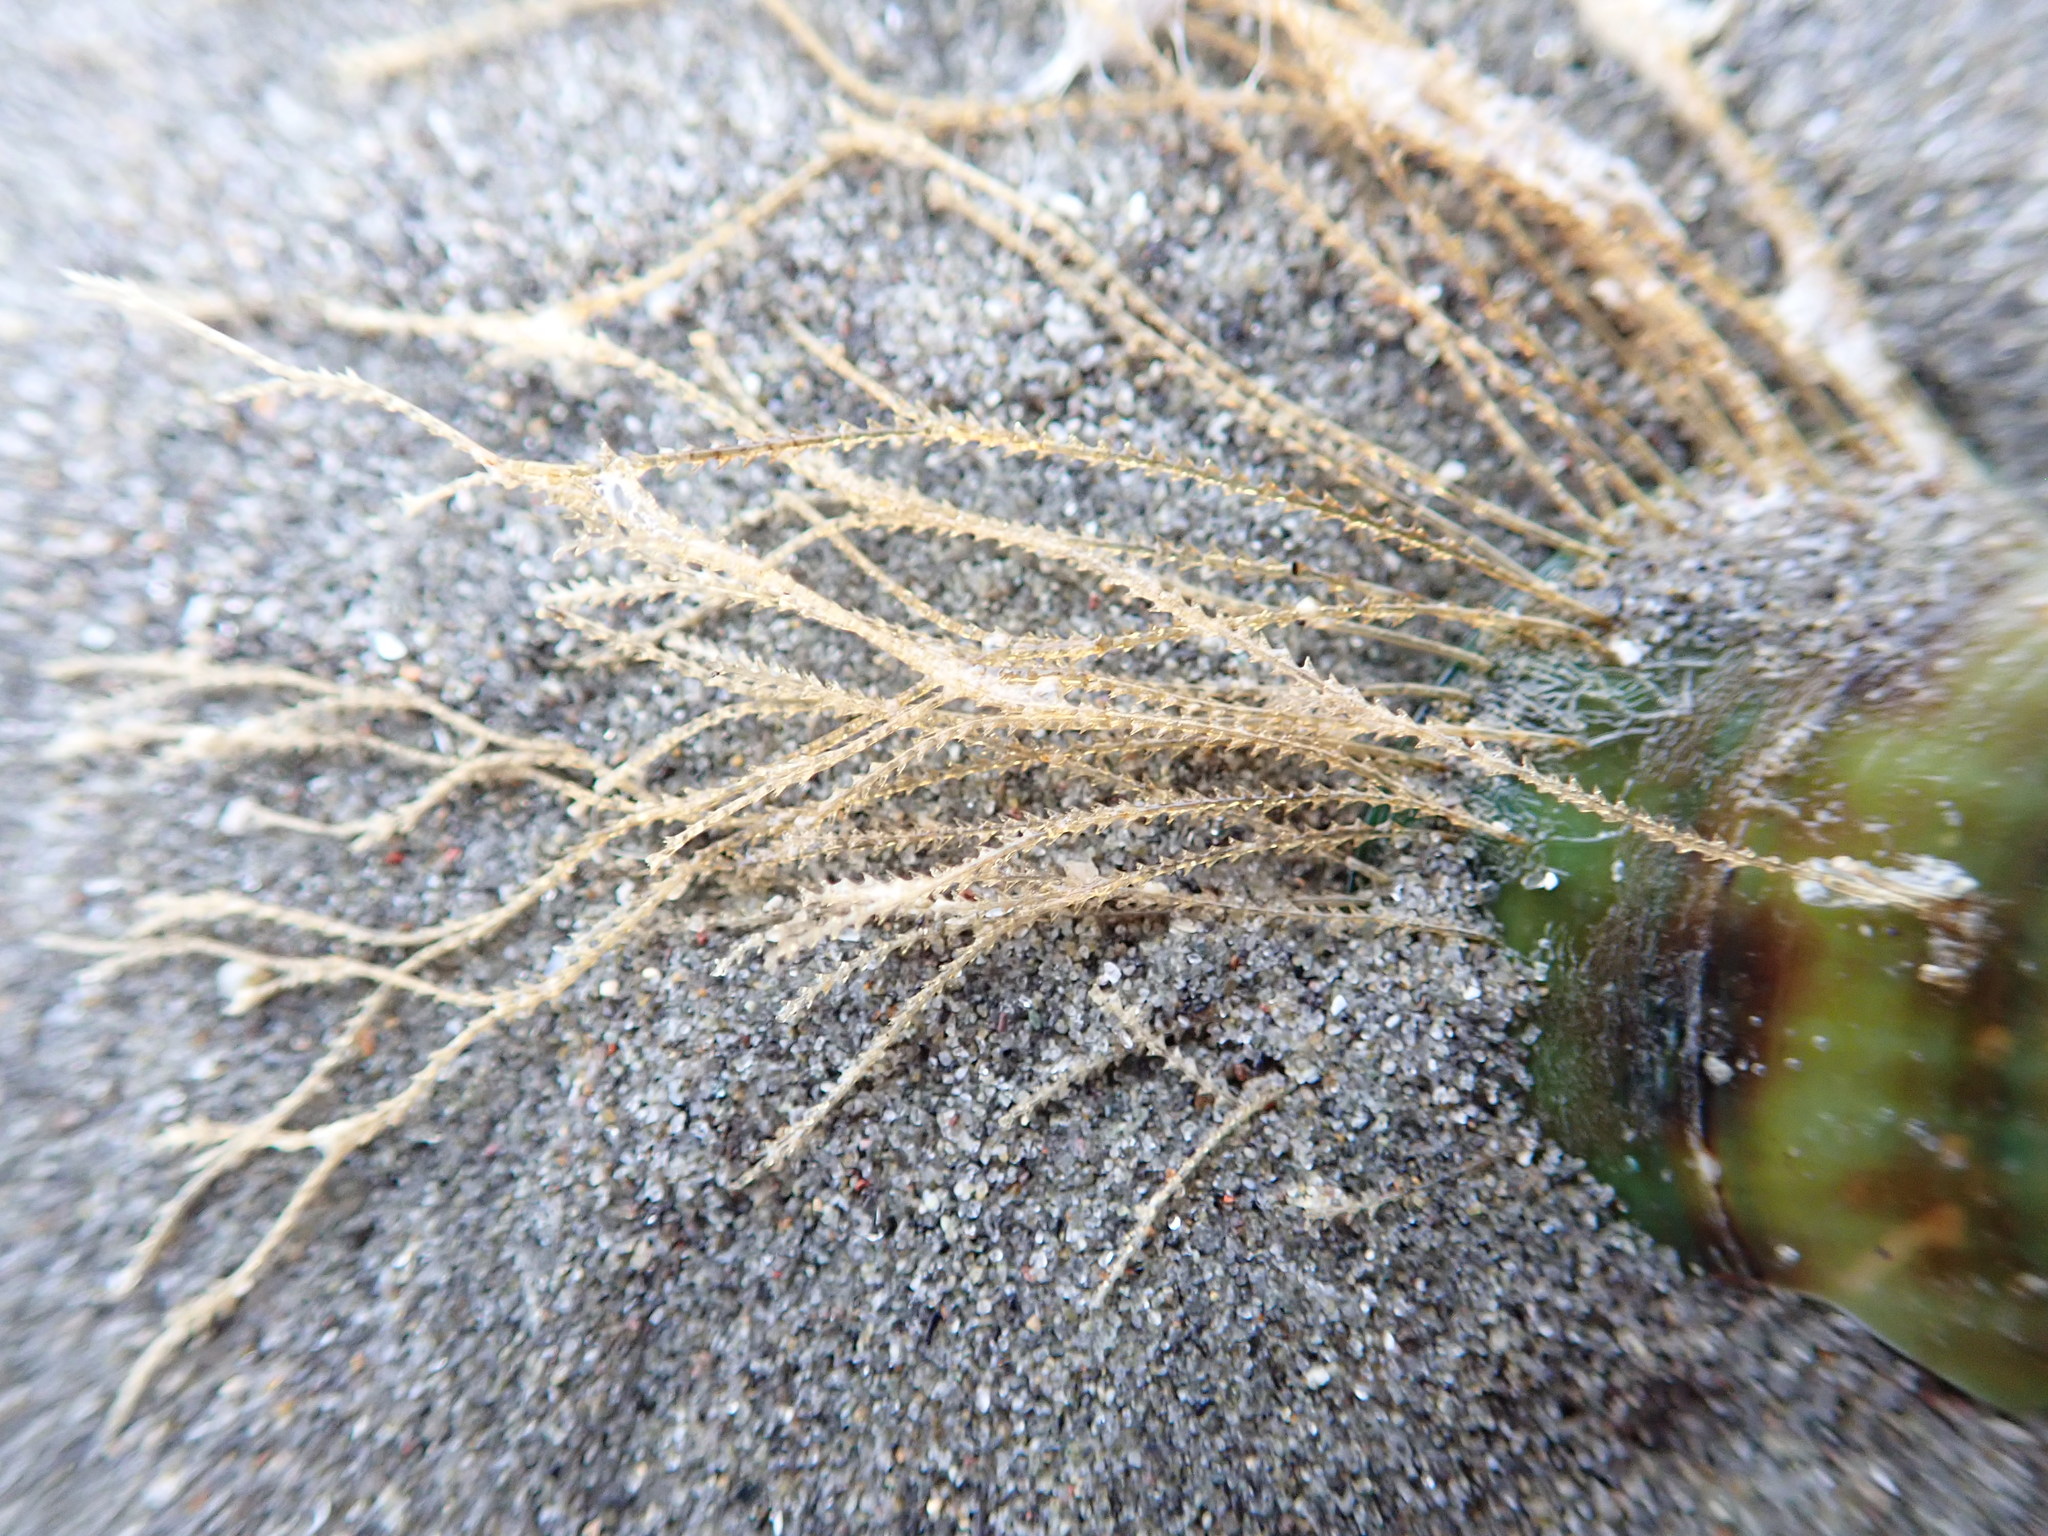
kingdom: Animalia
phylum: Cnidaria
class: Hydrozoa
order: Leptothecata
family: Sertulariidae
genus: Amphisbetia
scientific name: Amphisbetia bispinosa
